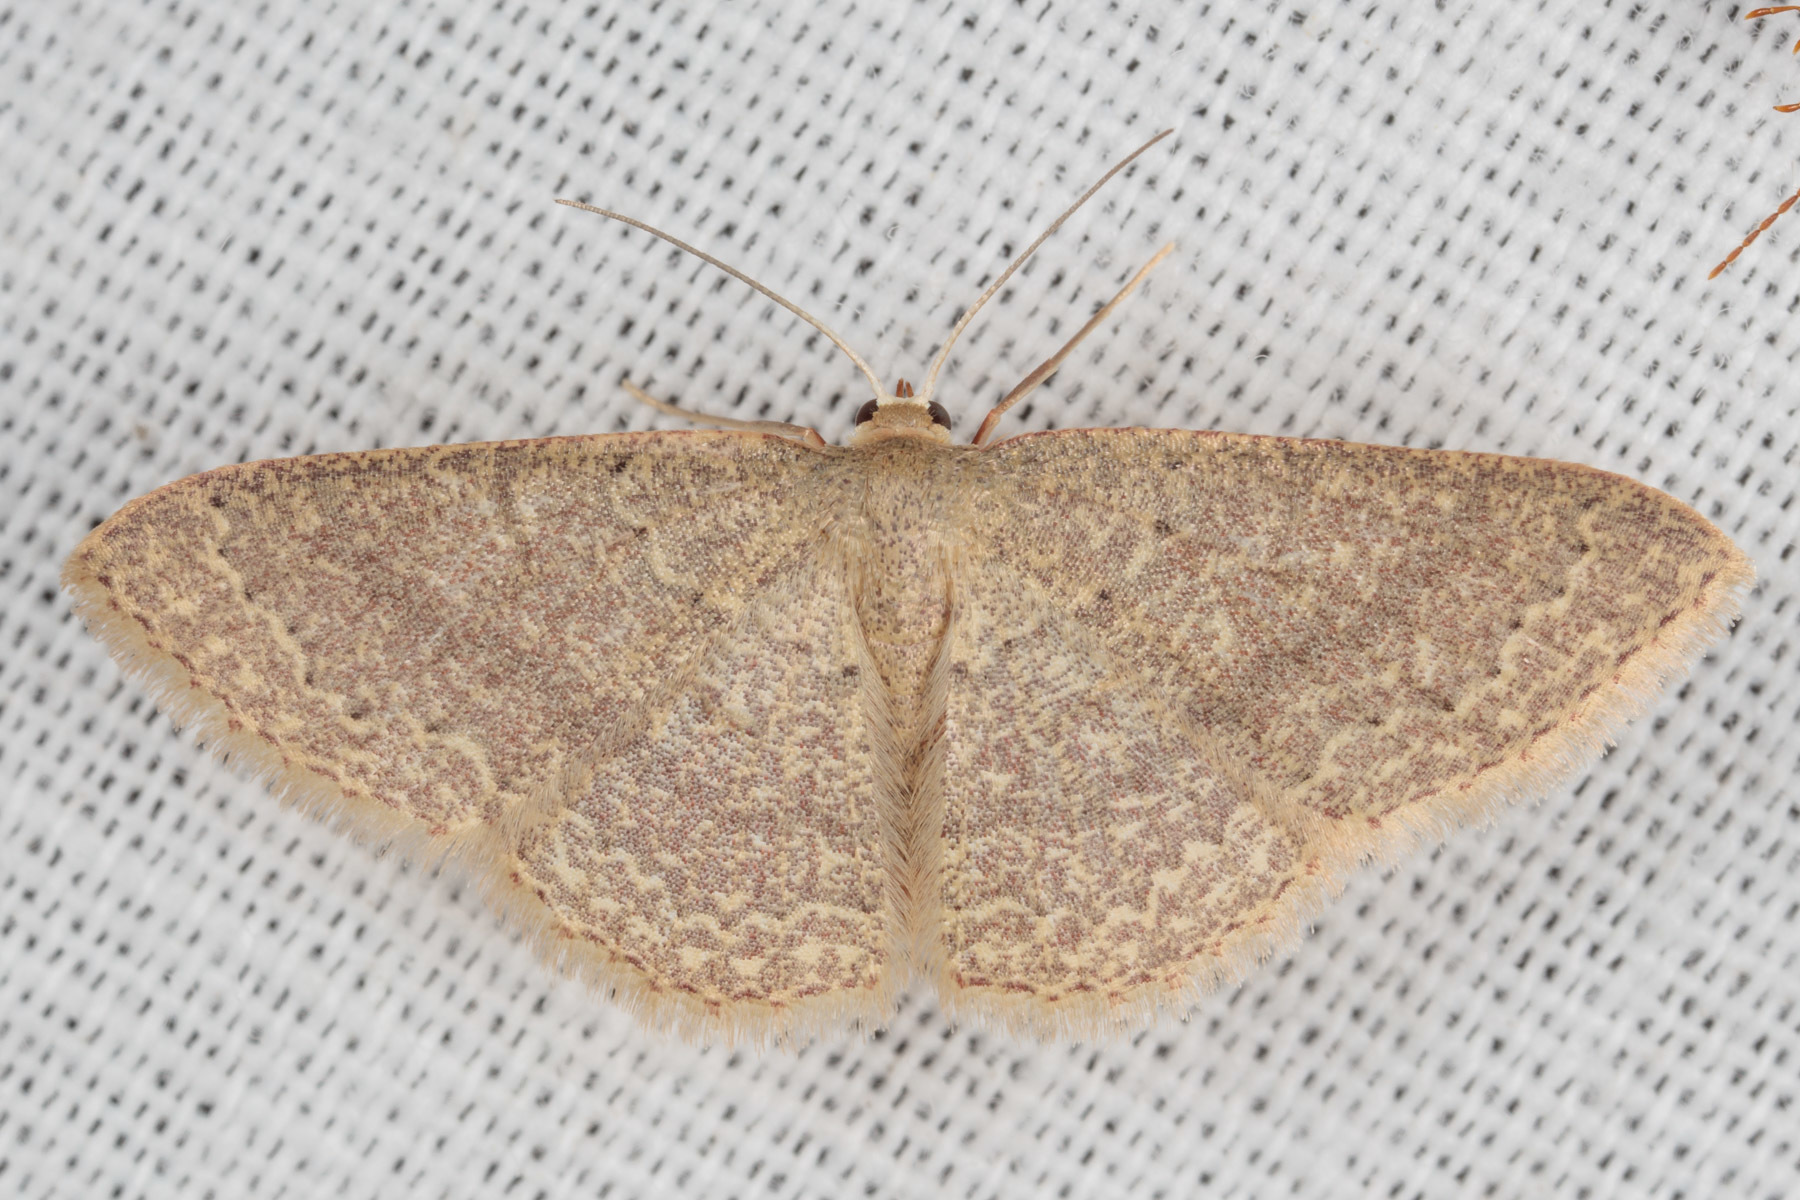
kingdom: Animalia
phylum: Arthropoda
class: Insecta
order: Lepidoptera
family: Geometridae
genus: Pleuroprucha
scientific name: Pleuroprucha insulsaria
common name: Common tan wave
